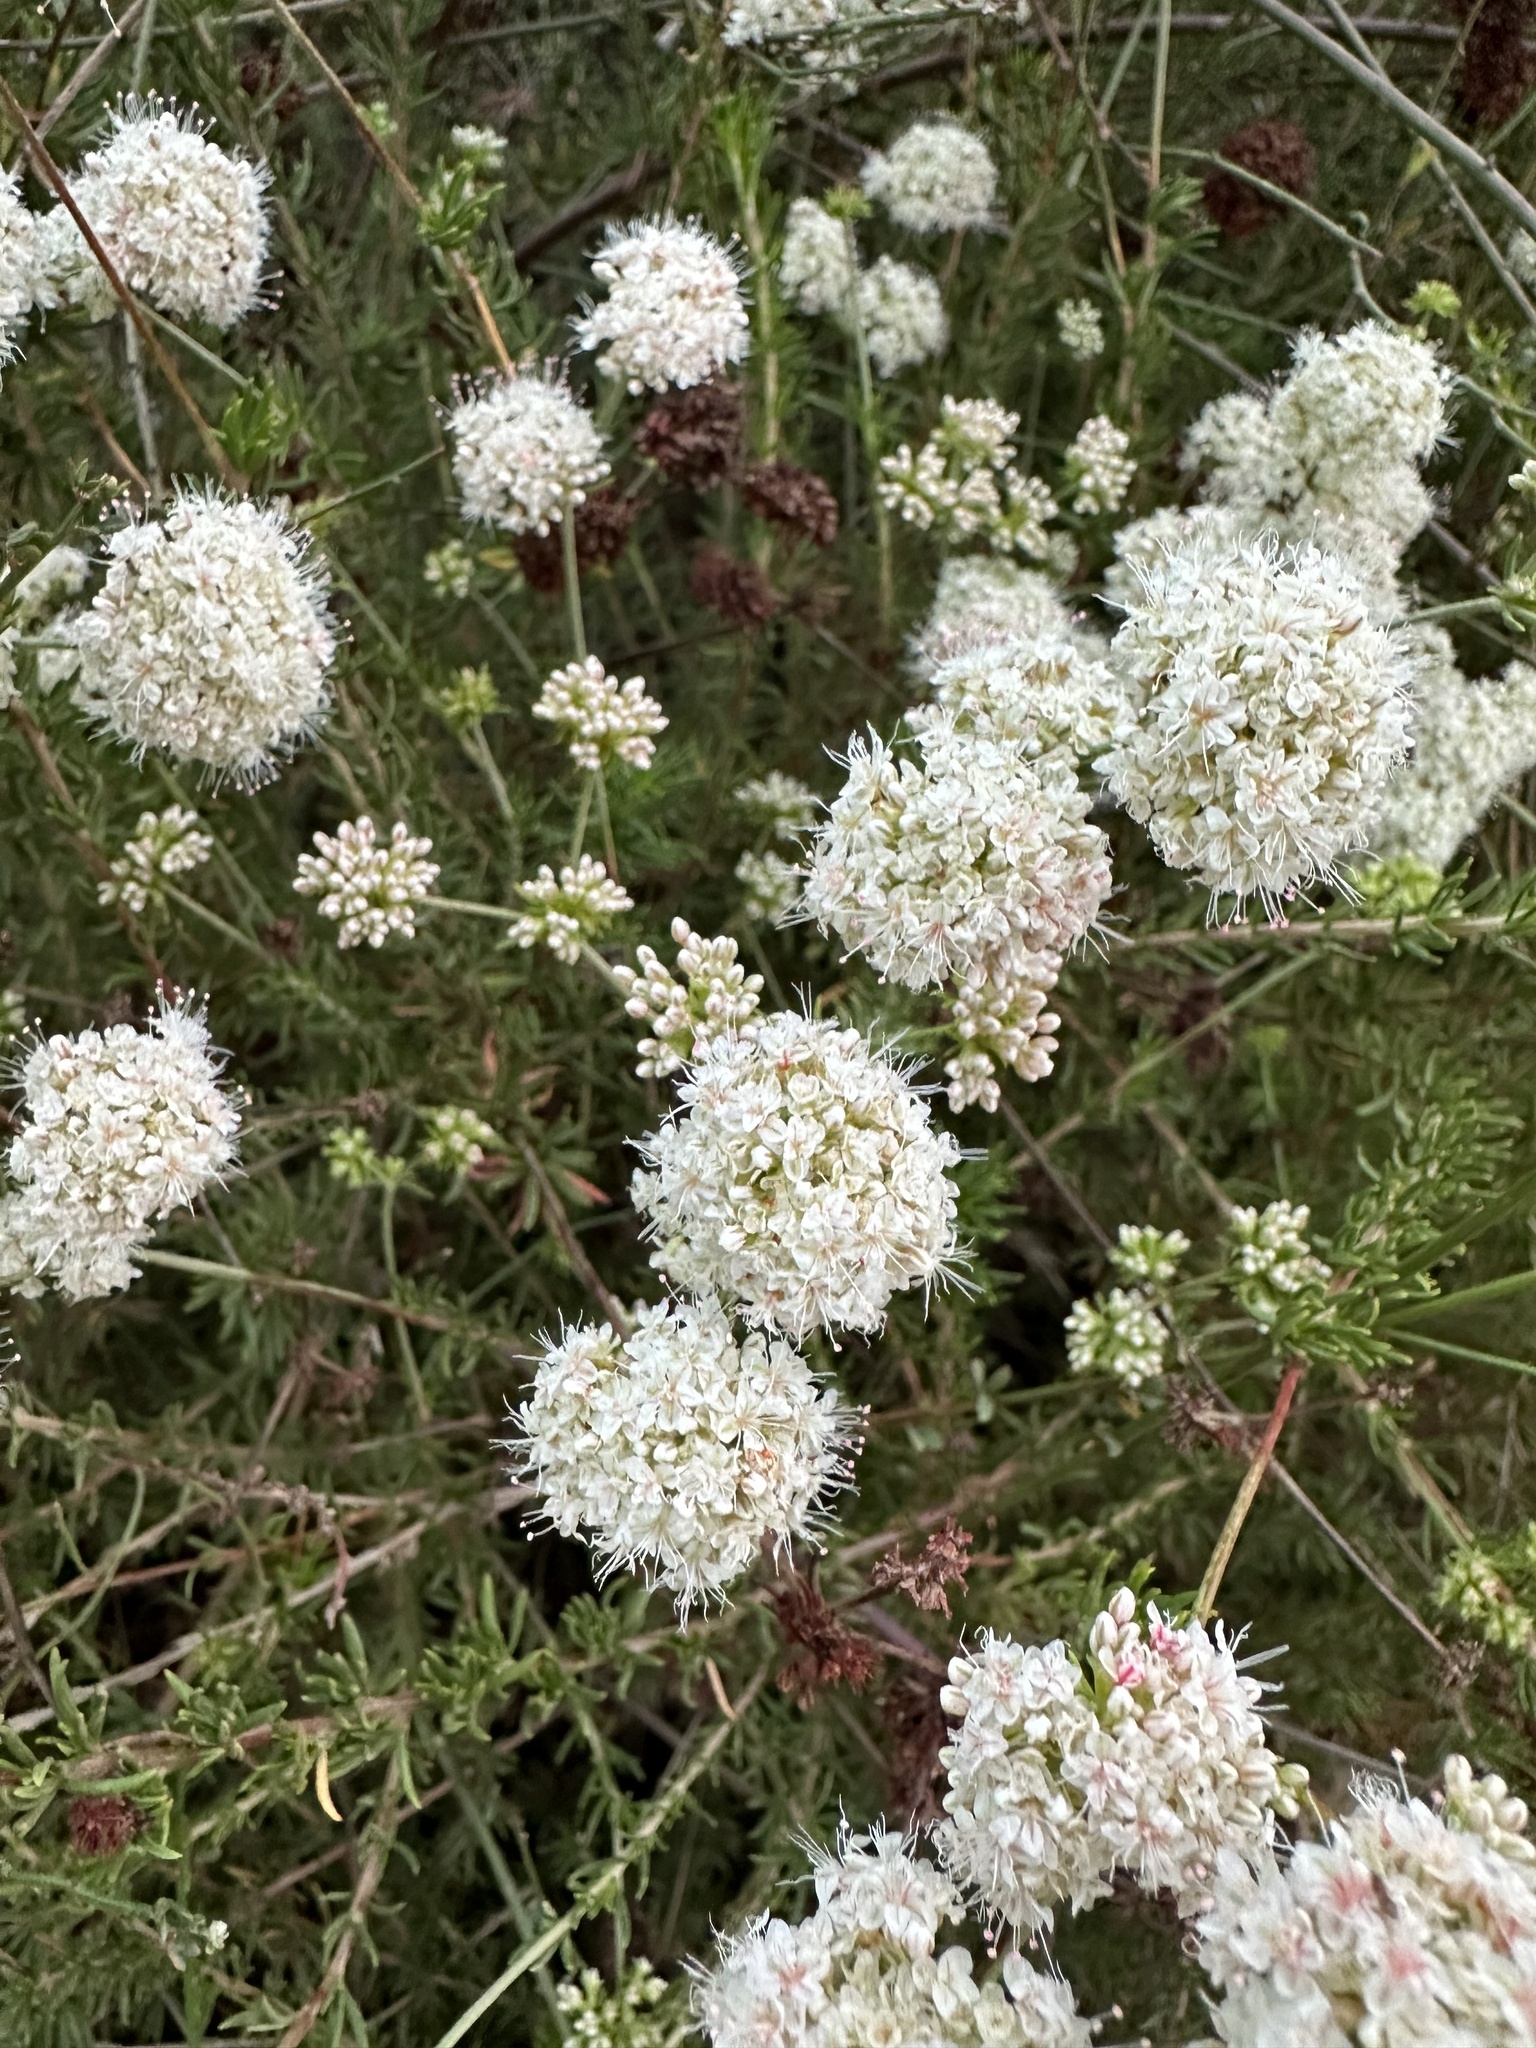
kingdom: Plantae
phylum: Tracheophyta
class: Magnoliopsida
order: Caryophyllales
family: Polygonaceae
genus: Eriogonum
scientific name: Eriogonum fasciculatum
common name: California wild buckwheat
